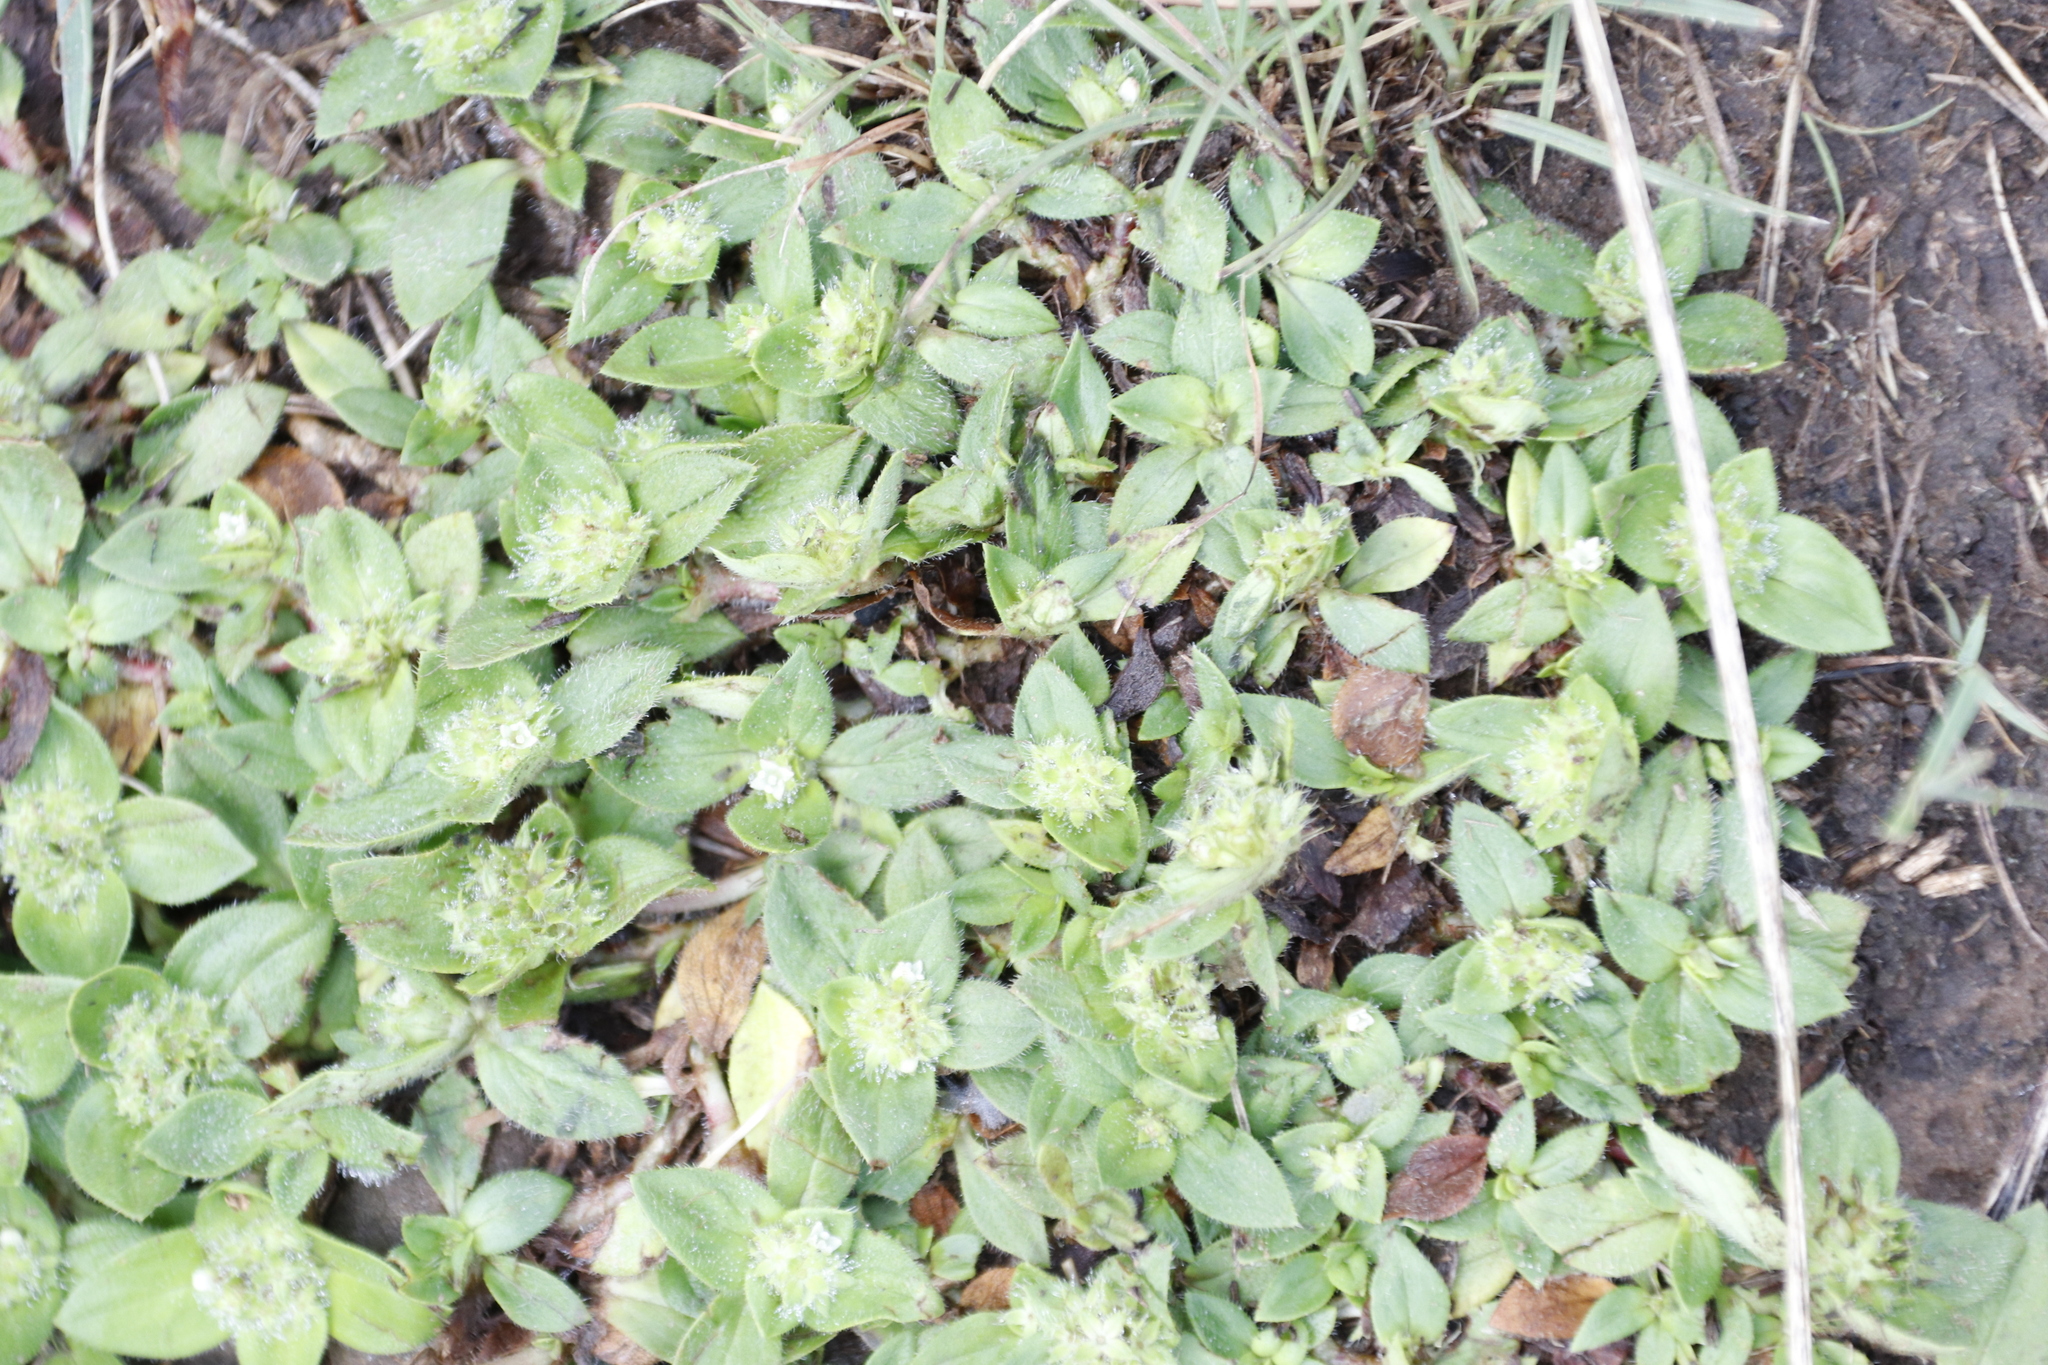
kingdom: Plantae
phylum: Tracheophyta
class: Magnoliopsida
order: Gentianales
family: Rubiaceae
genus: Richardia
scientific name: Richardia brasiliensis
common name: Tropical mexican clover
